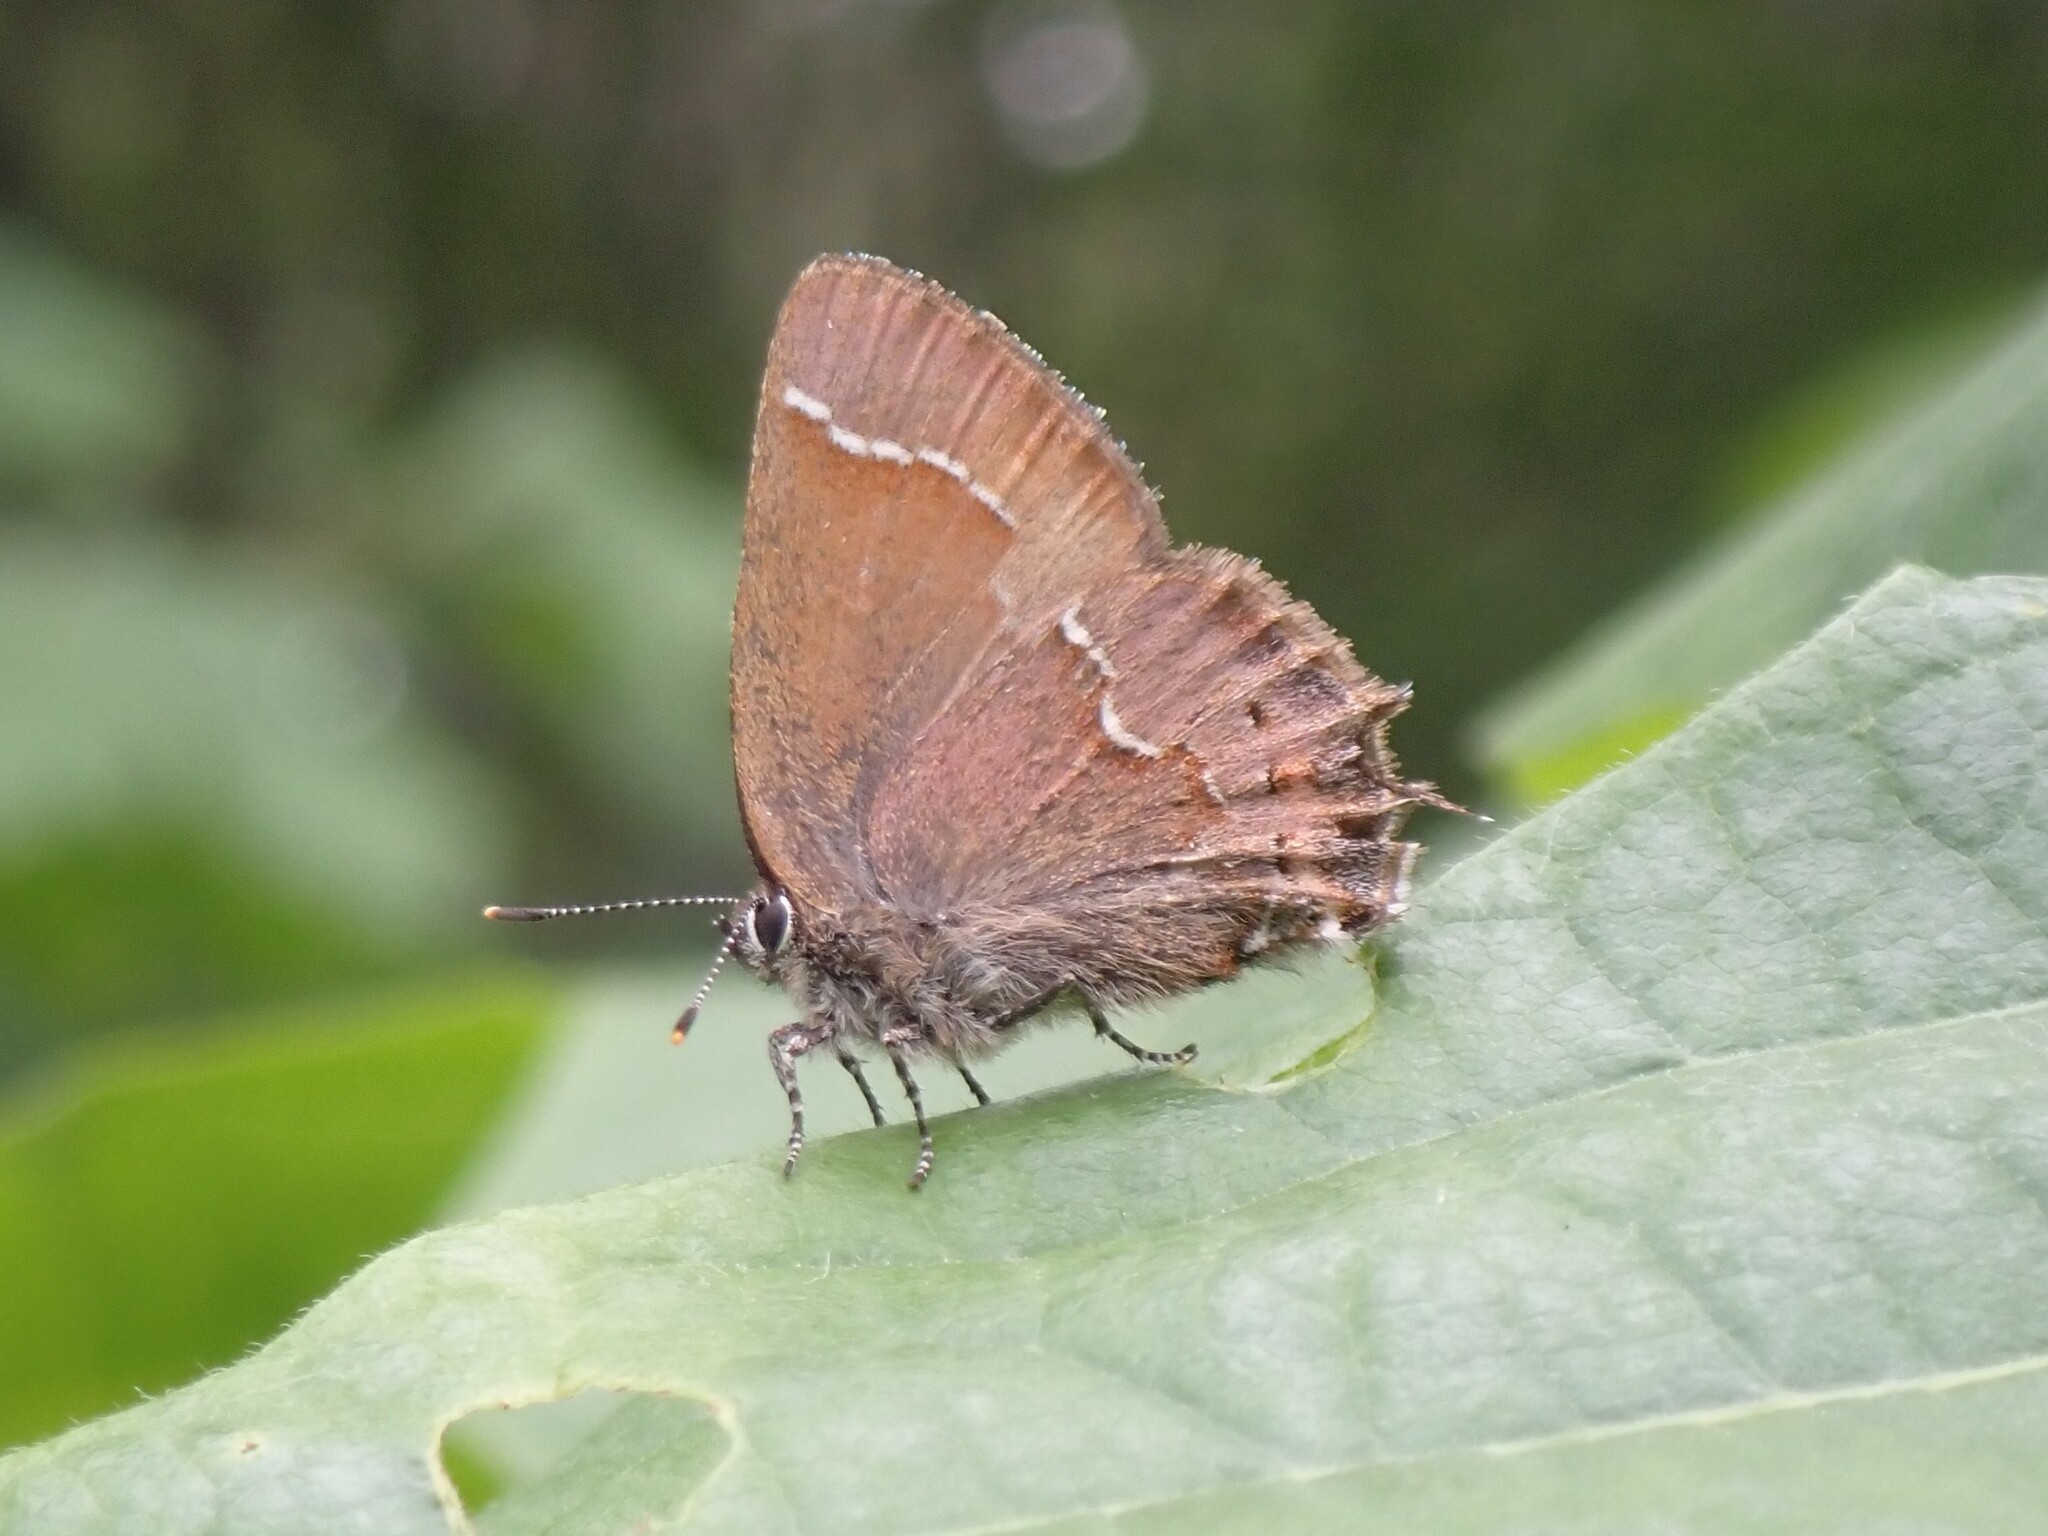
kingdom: Animalia
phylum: Arthropoda
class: Insecta
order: Lepidoptera
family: Lycaenidae
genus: Mitoura
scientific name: Mitoura gryneus
